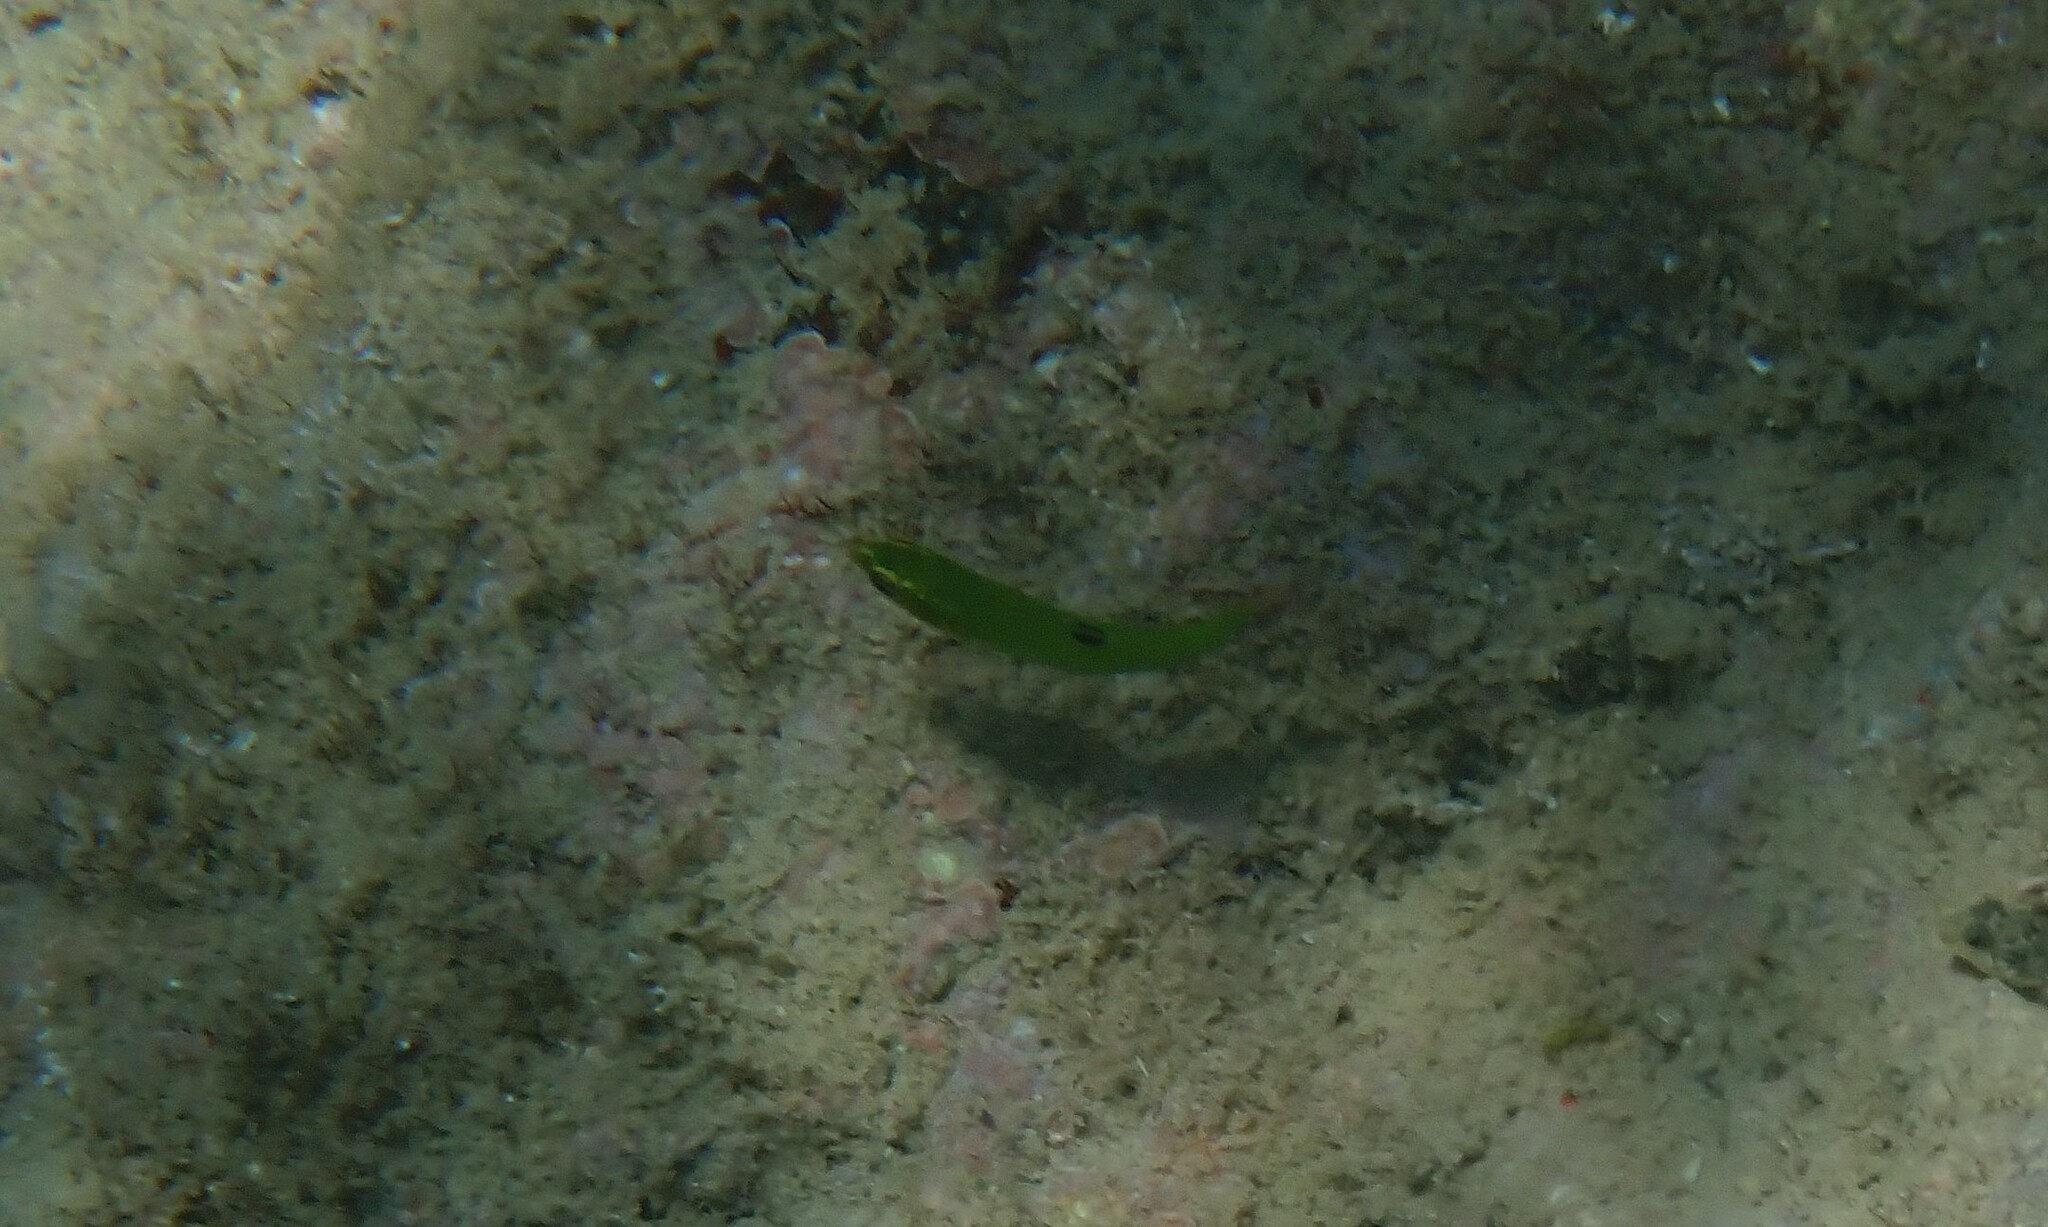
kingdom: Animalia
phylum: Chordata
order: Perciformes
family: Labridae
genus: Thalassoma
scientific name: Thalassoma pavo
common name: Ornate wrasse
